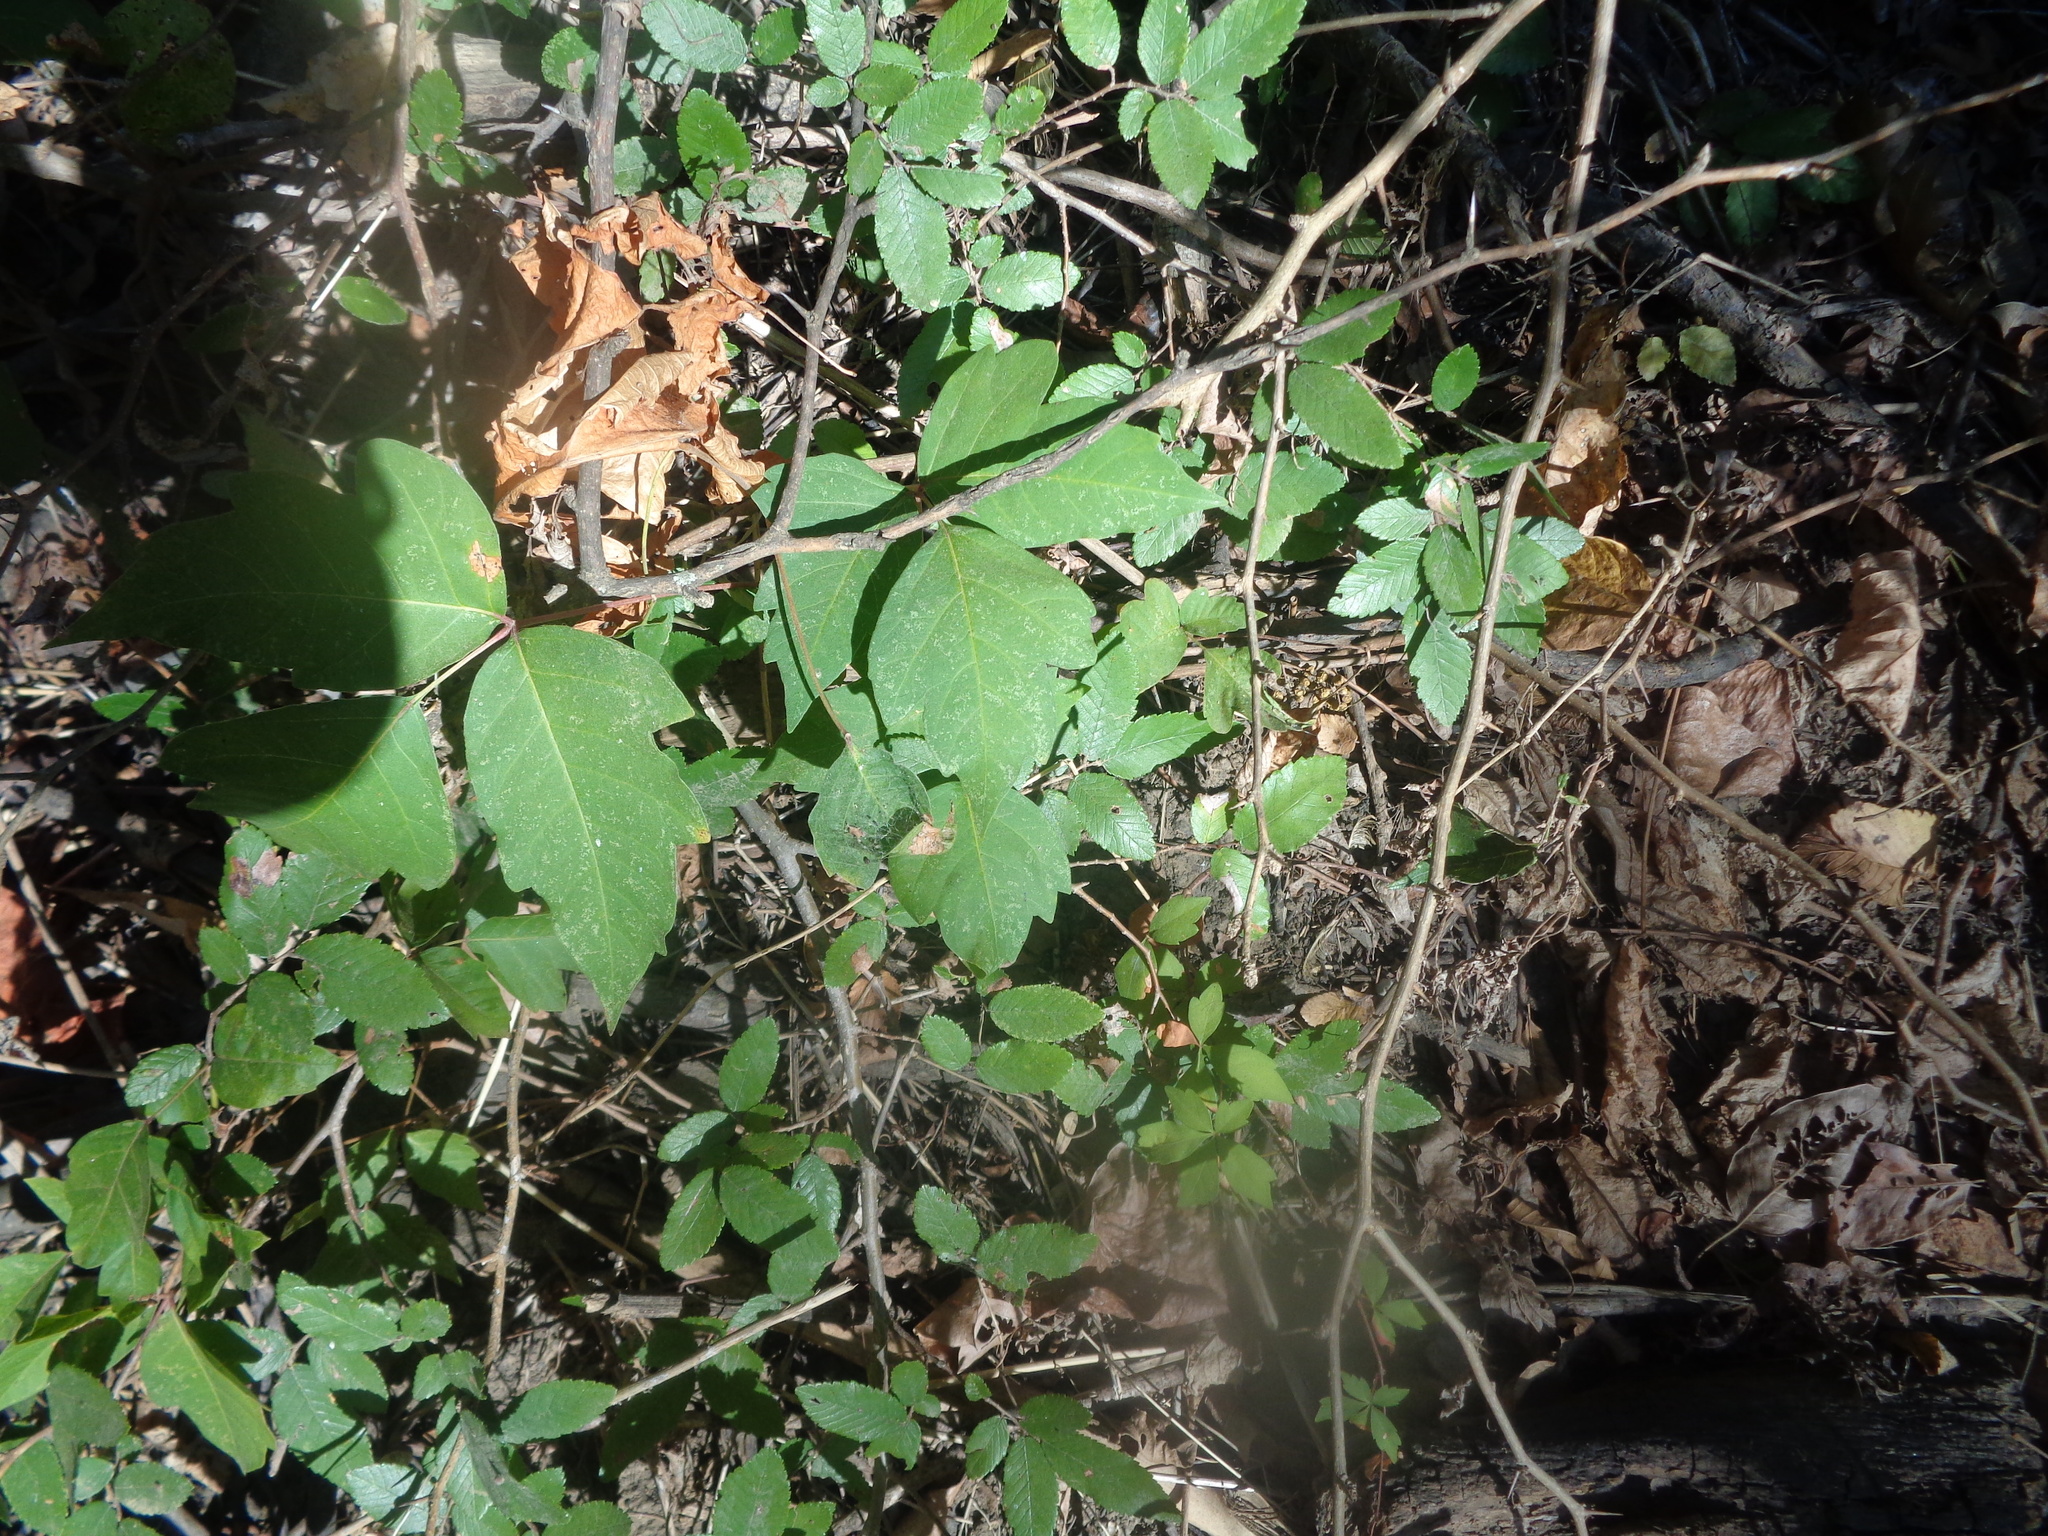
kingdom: Plantae
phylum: Tracheophyta
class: Magnoliopsida
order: Sapindales
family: Anacardiaceae
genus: Toxicodendron
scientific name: Toxicodendron radicans
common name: Poison ivy
